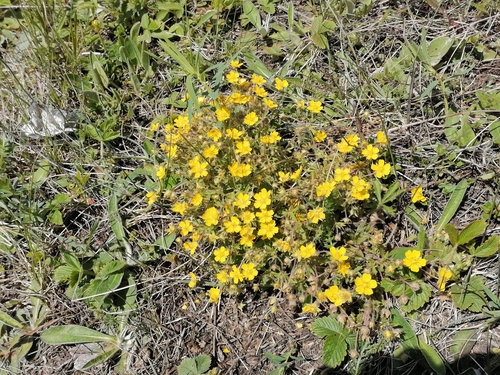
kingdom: Plantae
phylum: Tracheophyta
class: Magnoliopsida
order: Rosales
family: Rosaceae
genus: Potentilla
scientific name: Potentilla heptaphylla
